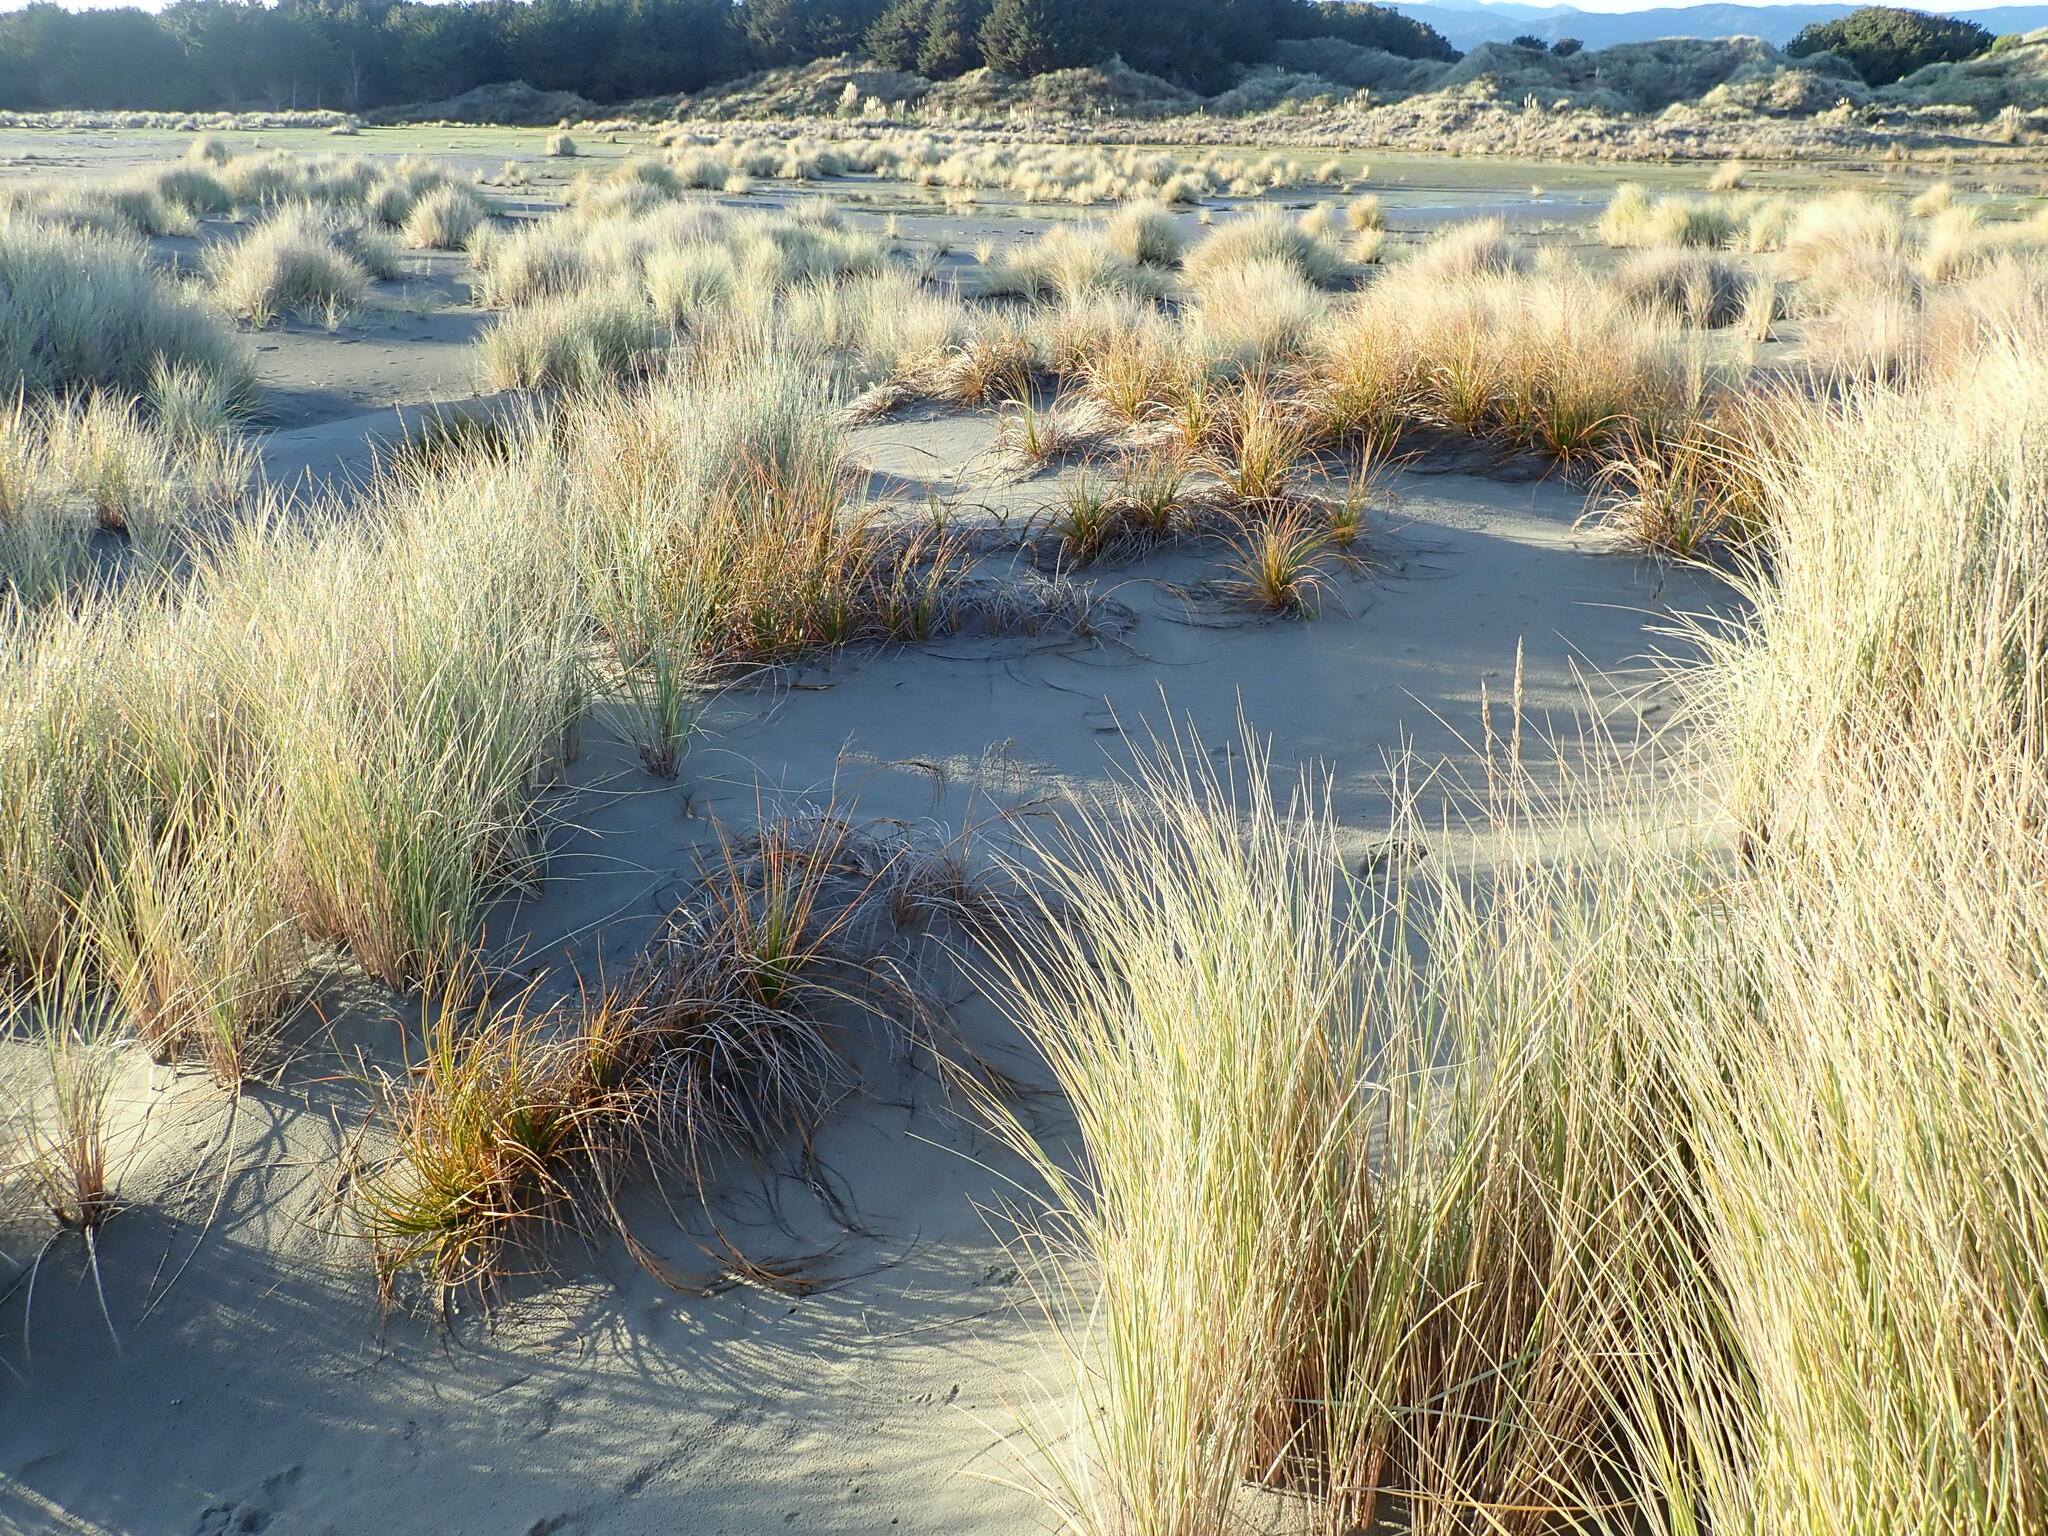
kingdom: Plantae
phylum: Tracheophyta
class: Liliopsida
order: Poales
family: Cyperaceae
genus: Ficinia
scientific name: Ficinia spiralis
